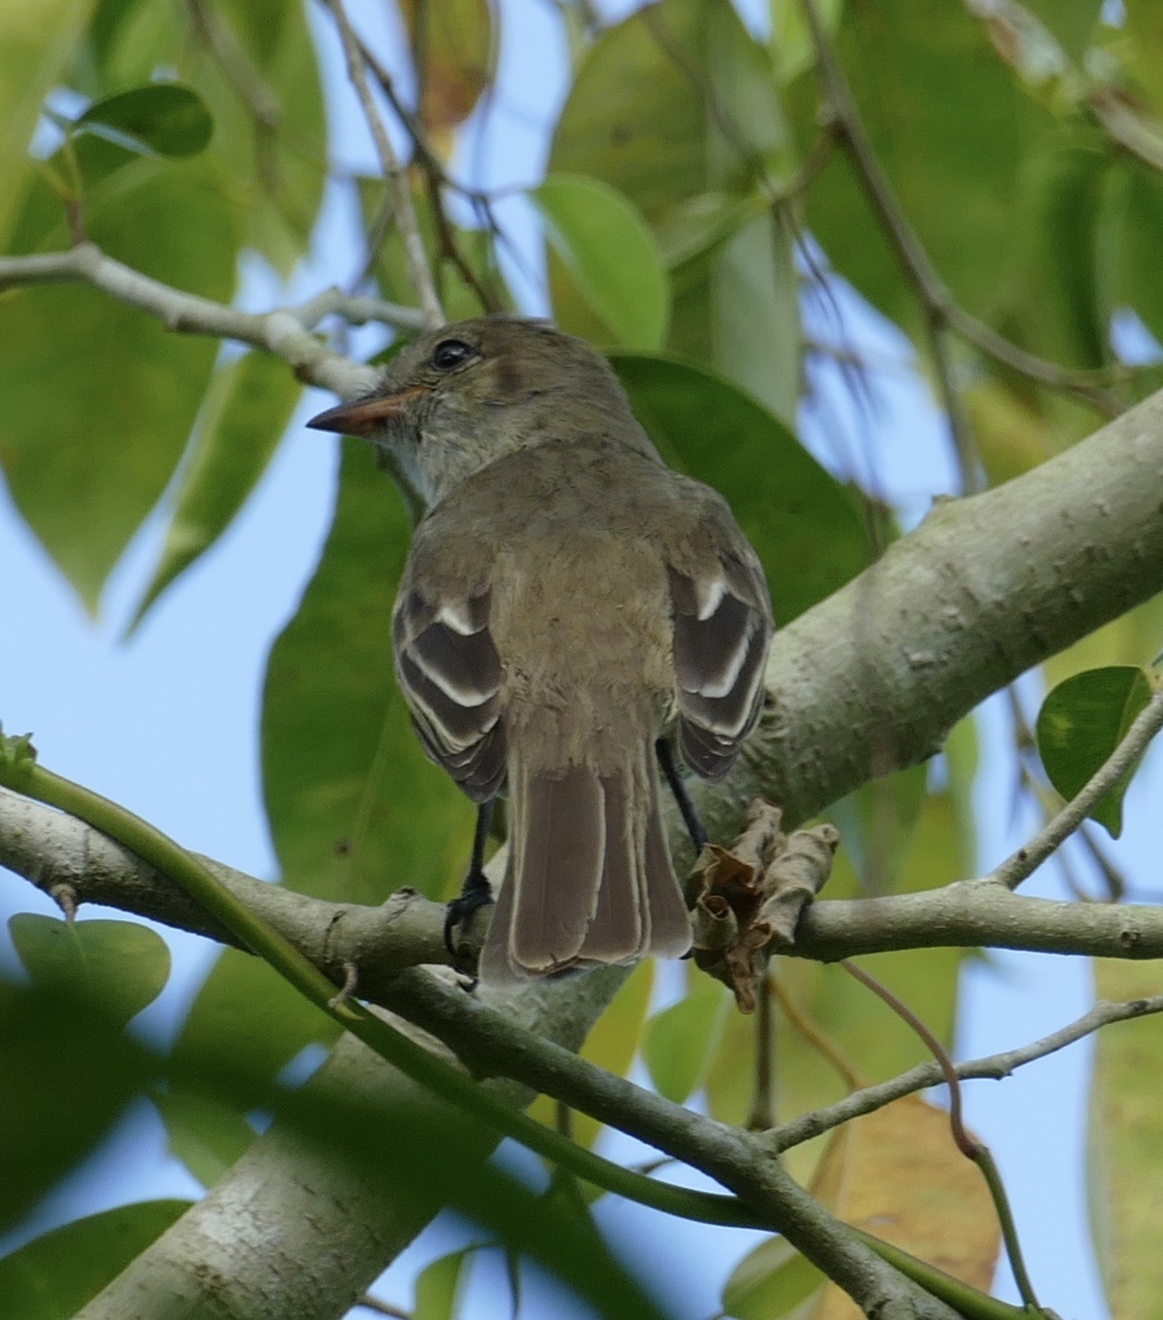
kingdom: Animalia
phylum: Chordata
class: Aves
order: Passeriformes
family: Tyrannidae
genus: Elaenia
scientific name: Elaenia martinica
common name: Caribbean elaenia
